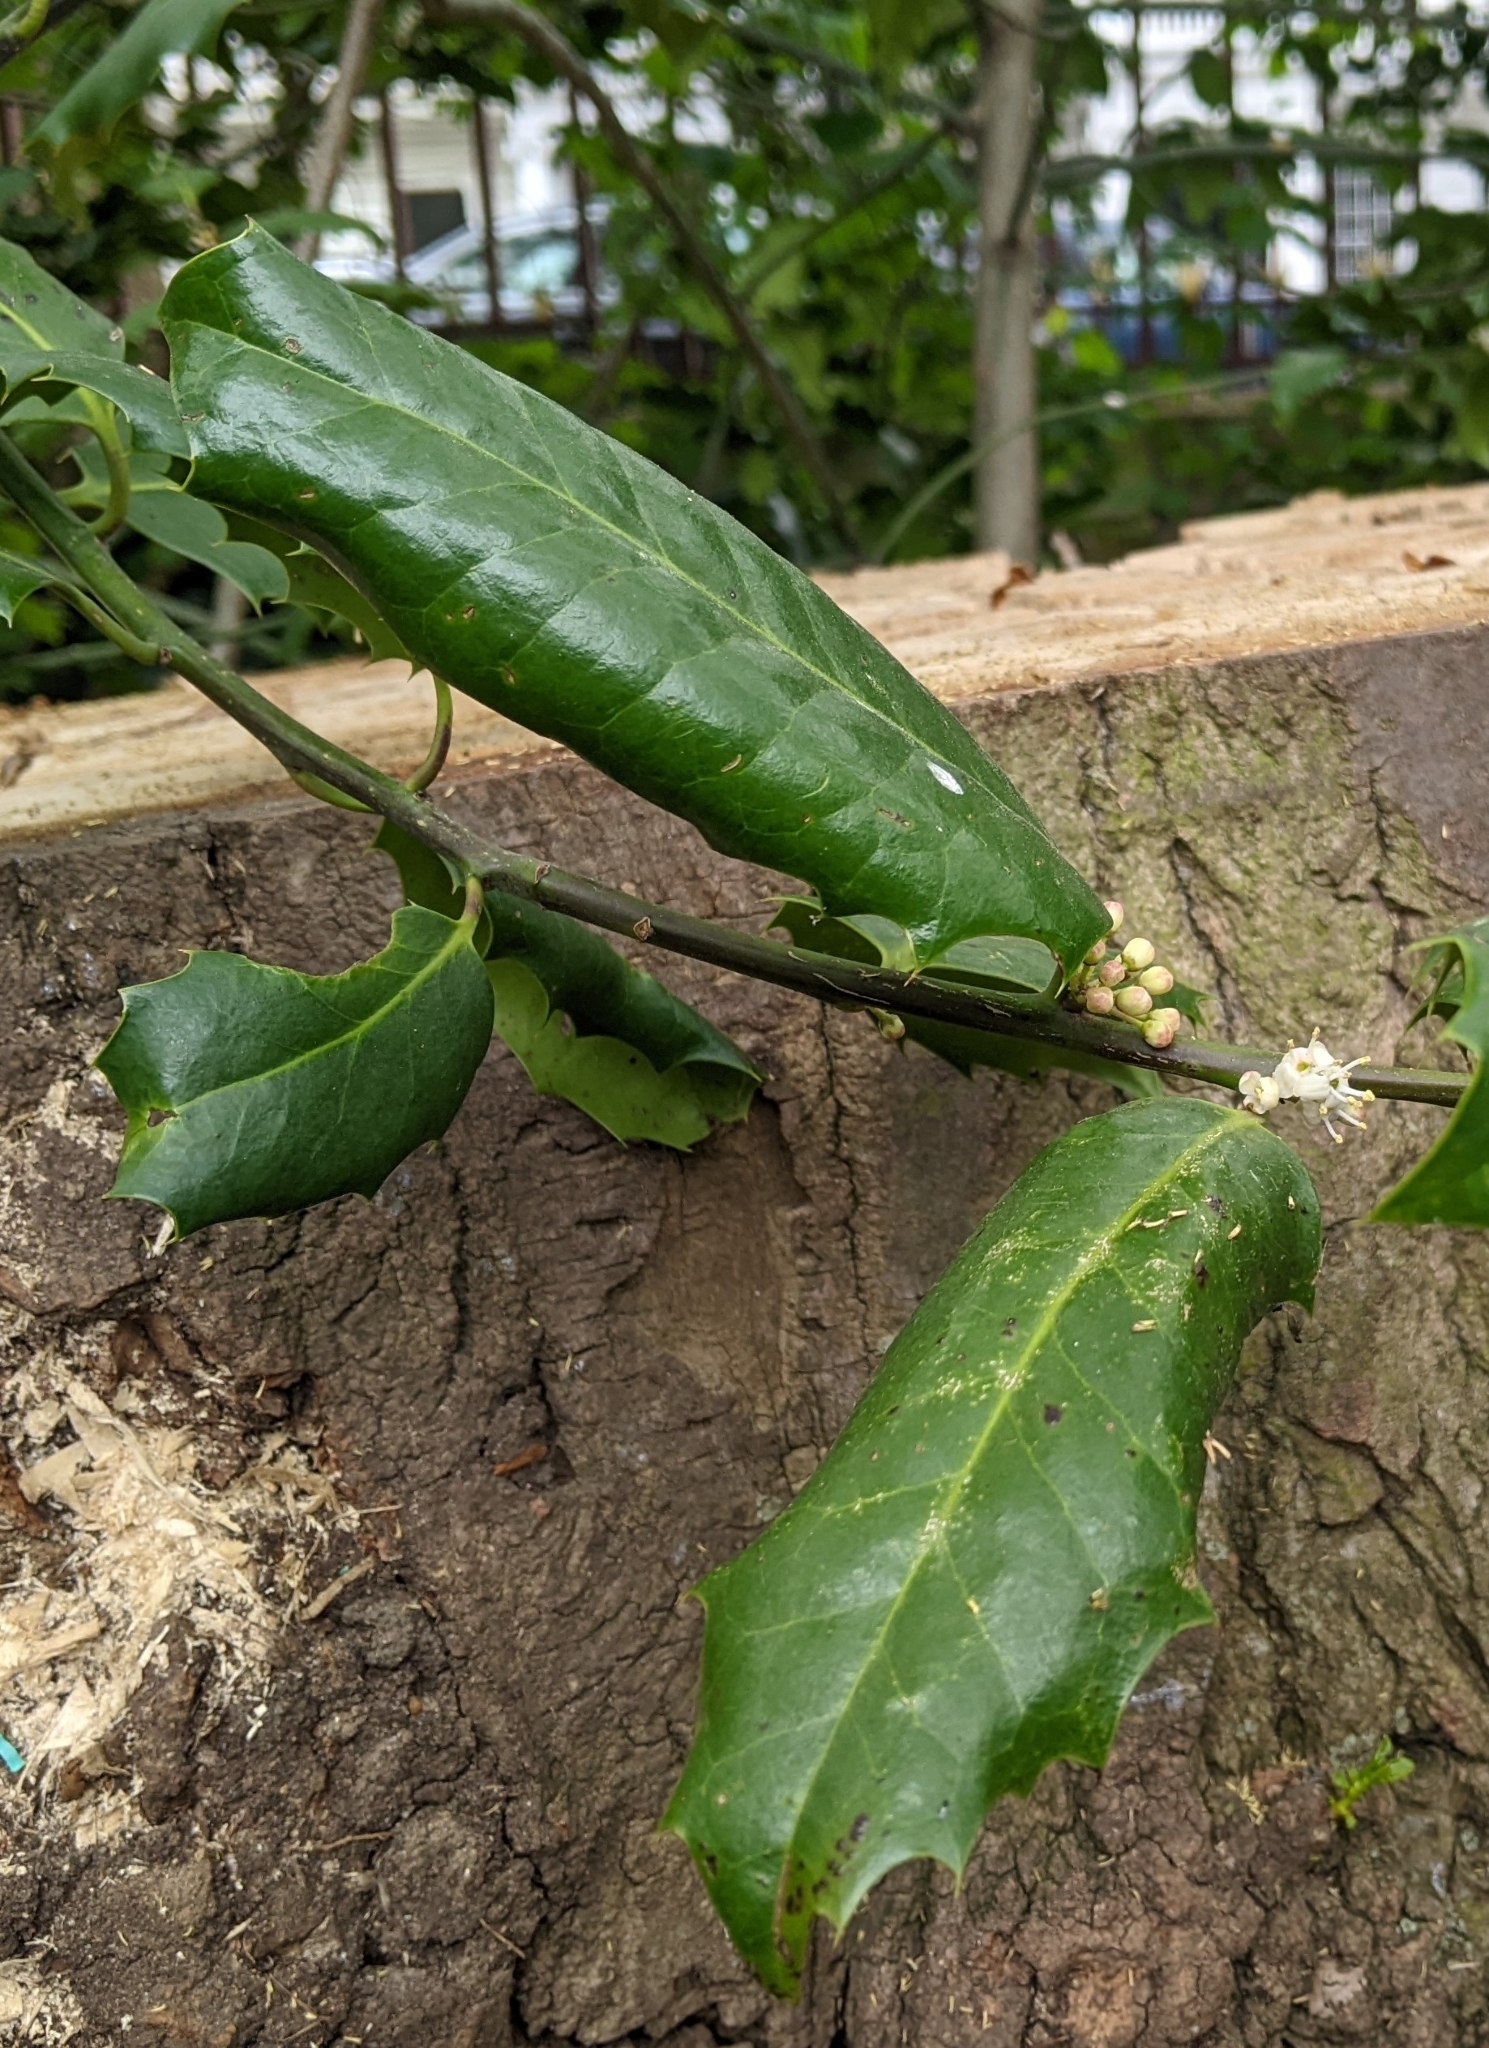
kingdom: Plantae
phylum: Tracheophyta
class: Magnoliopsida
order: Aquifoliales
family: Aquifoliaceae
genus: Ilex
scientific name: Ilex aquifolium
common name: English holly
